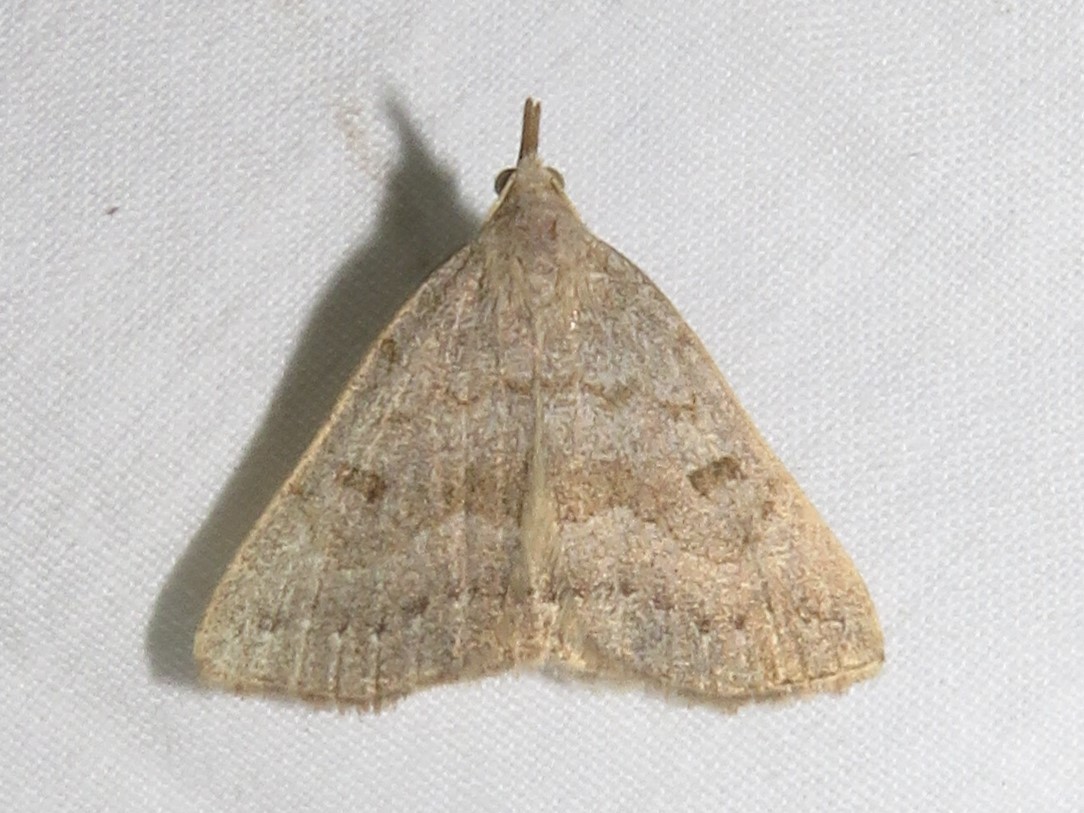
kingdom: Animalia
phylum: Arthropoda
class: Insecta
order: Lepidoptera
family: Erebidae
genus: Macrochilo
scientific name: Macrochilo morbidalis
